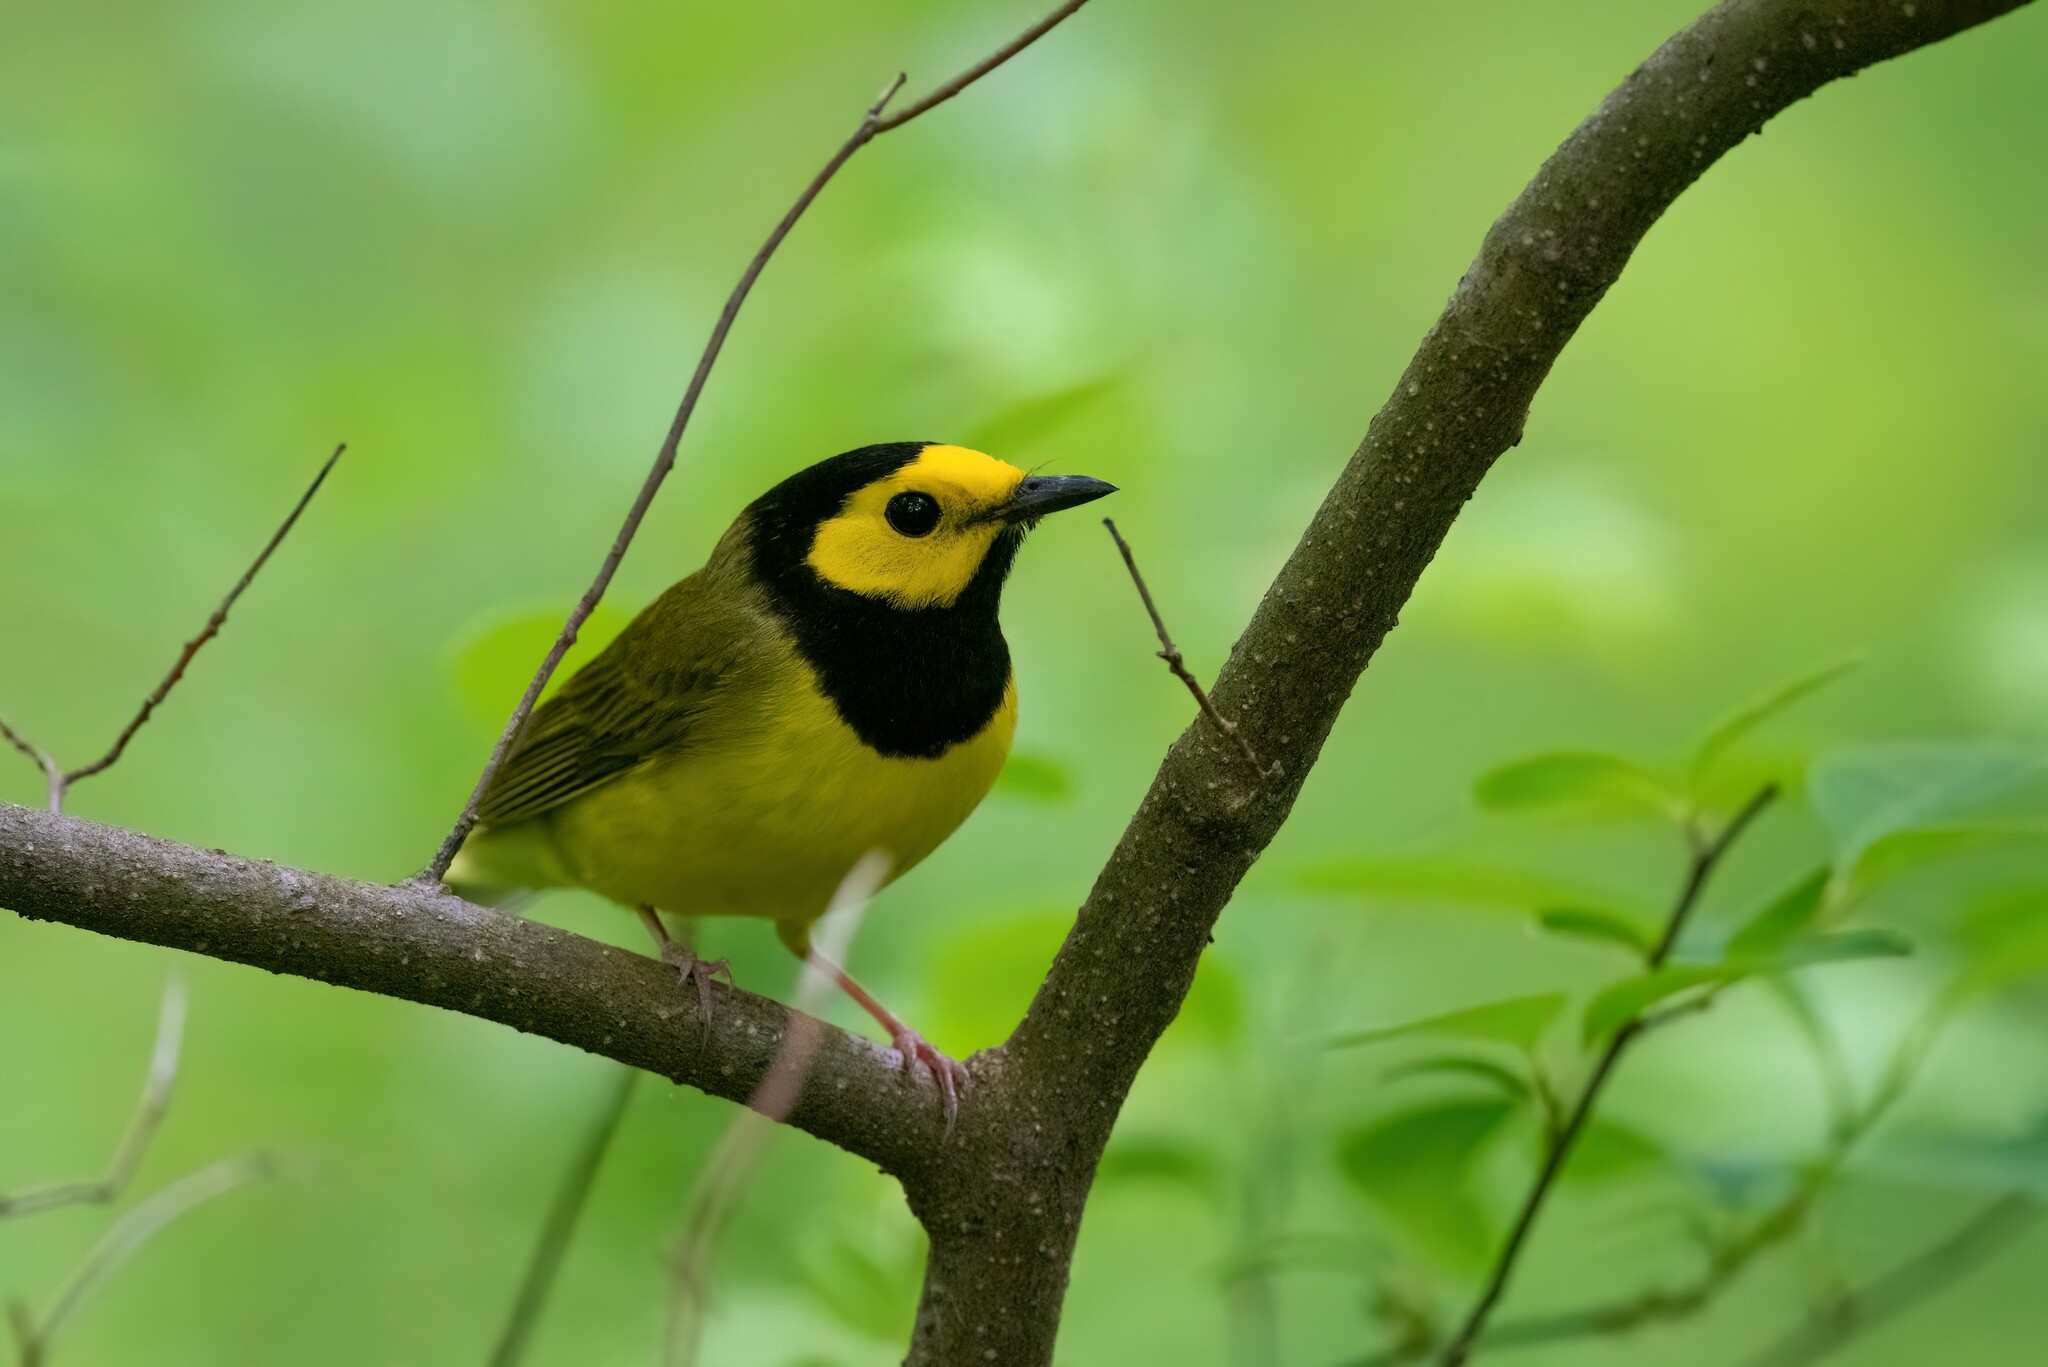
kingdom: Animalia
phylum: Chordata
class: Aves
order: Passeriformes
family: Parulidae
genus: Setophaga
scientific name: Setophaga citrina
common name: Hooded warbler
